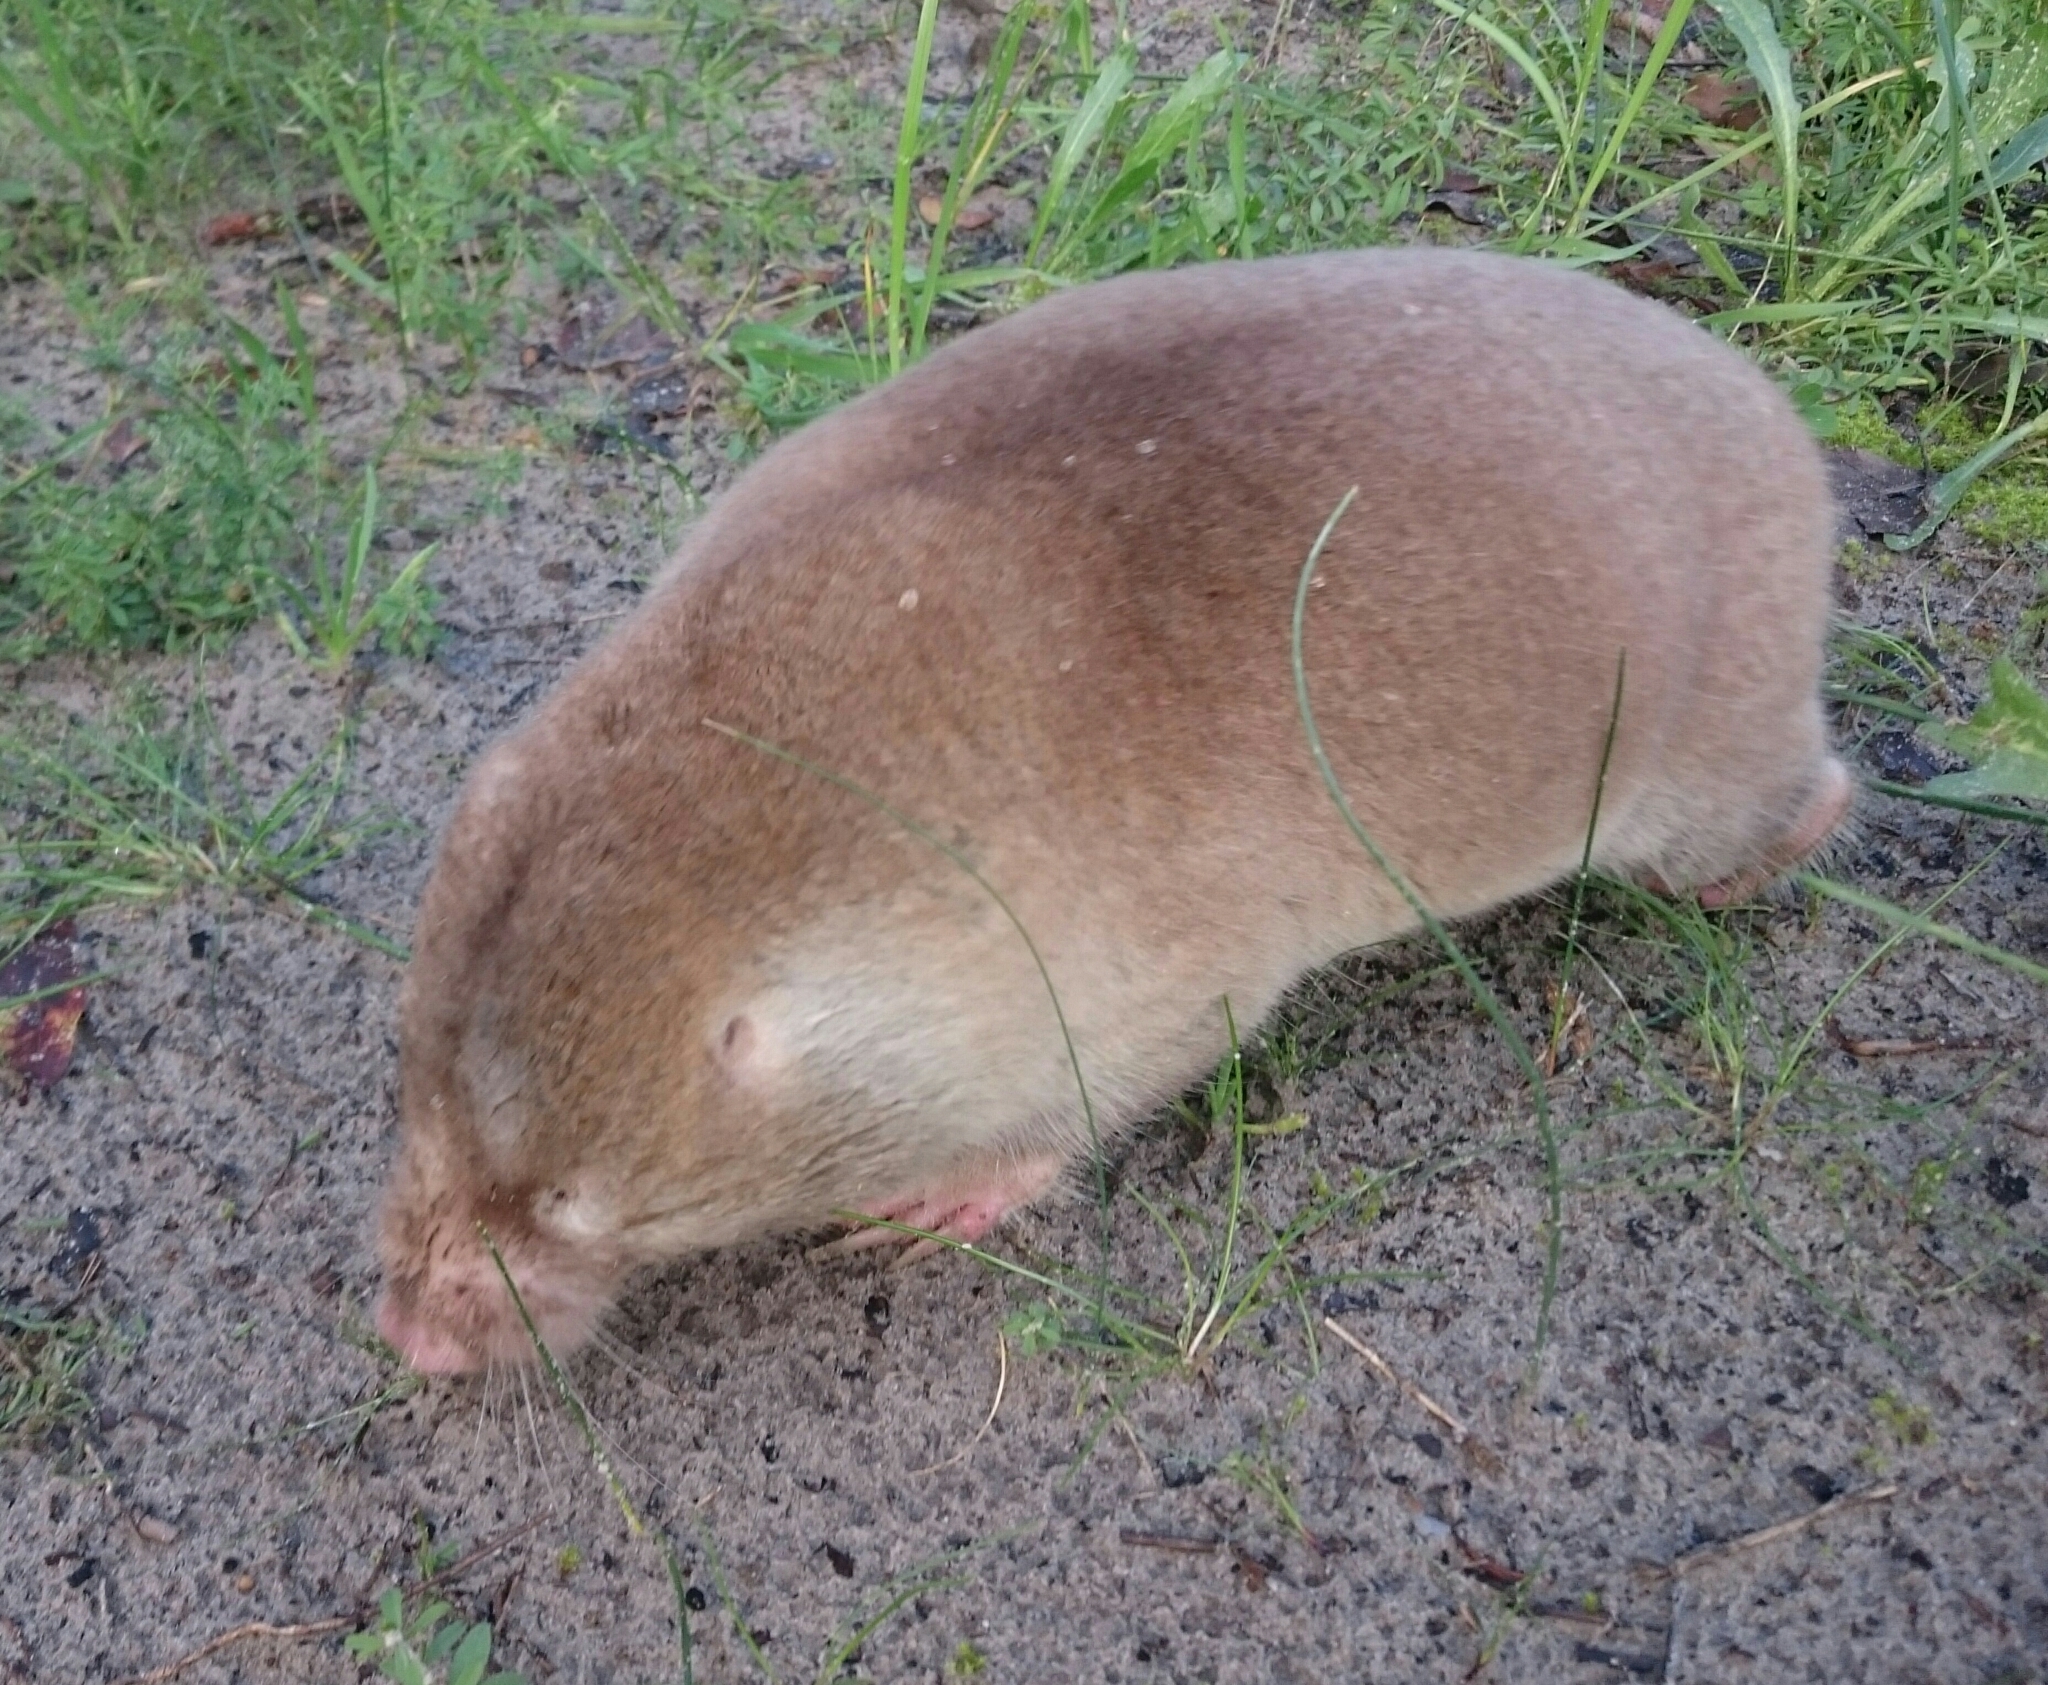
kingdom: Animalia
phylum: Chordata
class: Mammalia
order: Rodentia
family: Bathyergidae
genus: Bathyergus
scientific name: Bathyergus suillus
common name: Cape dune mole rat
